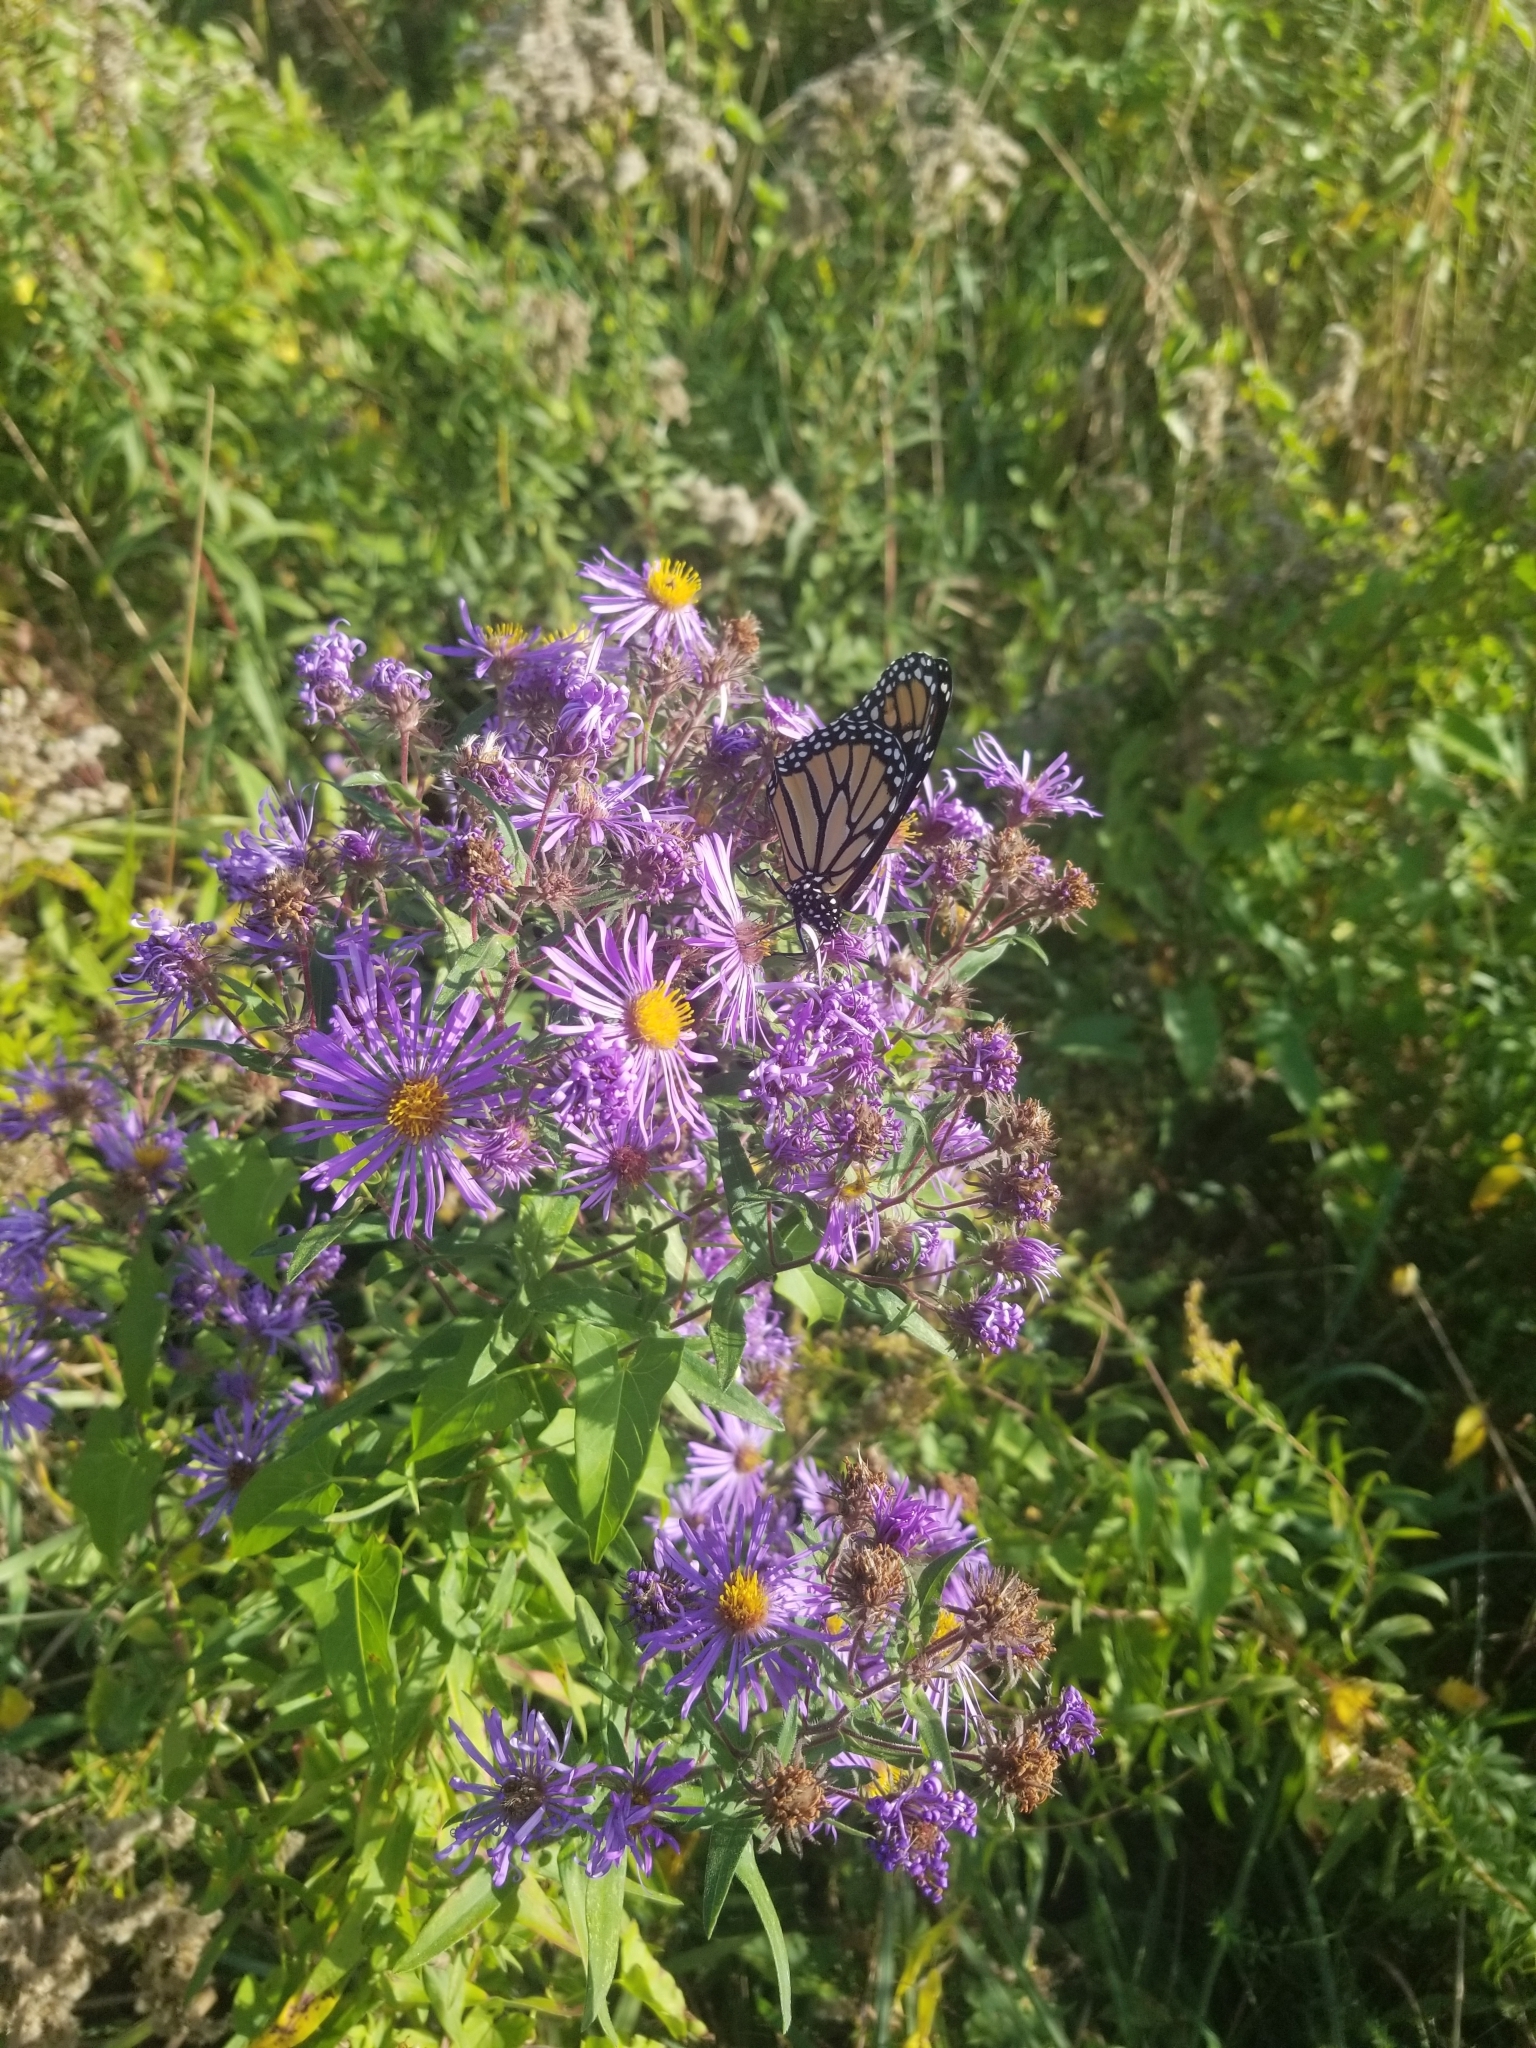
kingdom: Animalia
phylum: Arthropoda
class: Insecta
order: Lepidoptera
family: Nymphalidae
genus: Danaus
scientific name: Danaus plexippus
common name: Monarch
